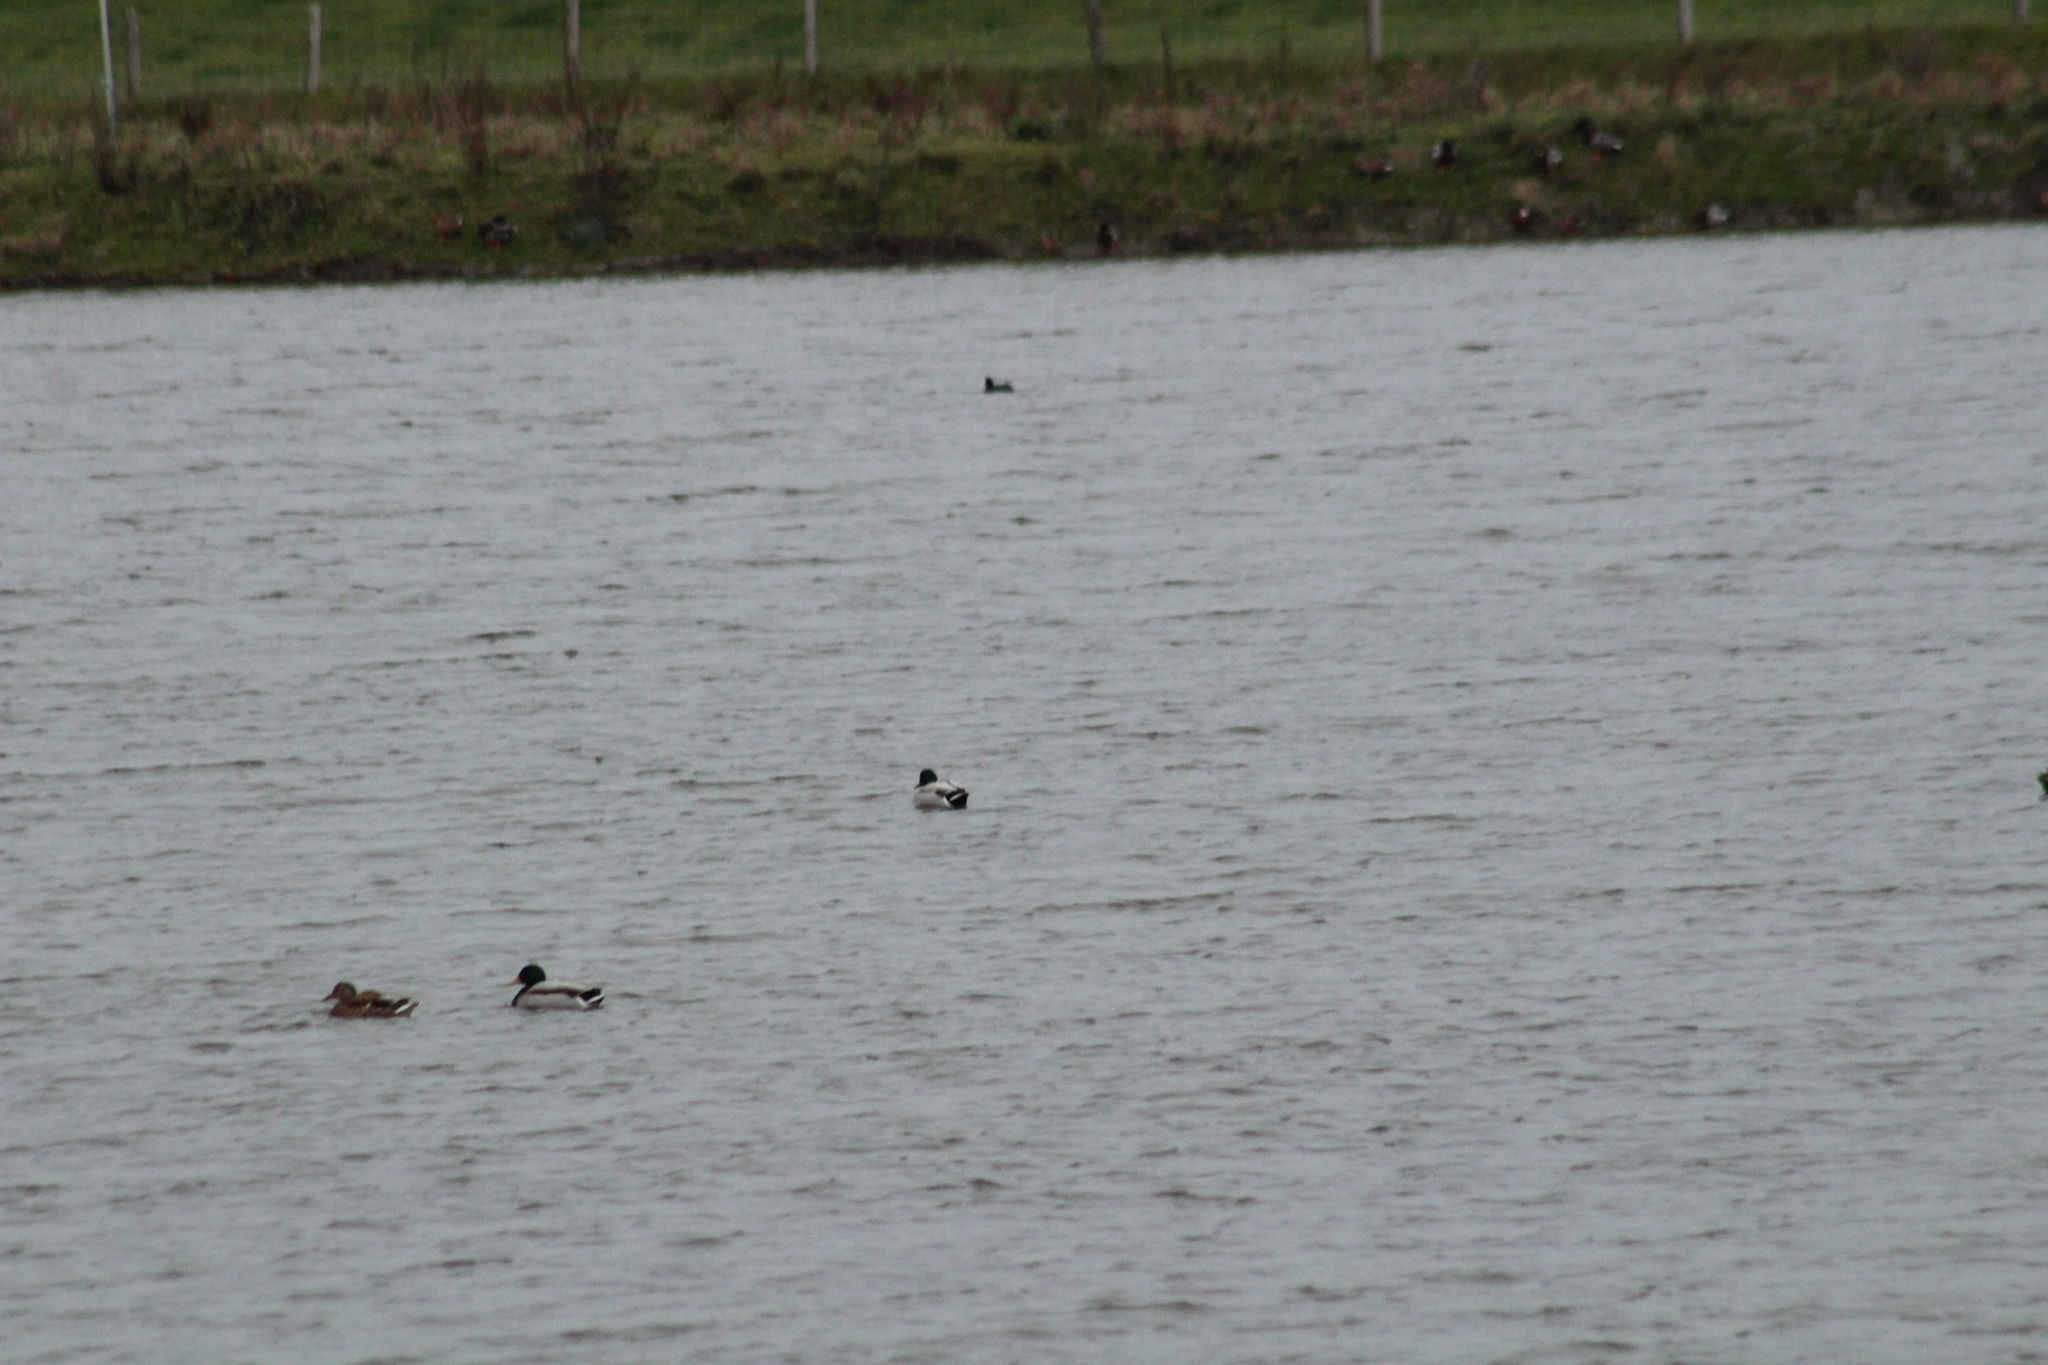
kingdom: Animalia
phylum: Chordata
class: Aves
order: Anseriformes
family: Anatidae
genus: Anas
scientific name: Anas platyrhynchos
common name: Mallard
